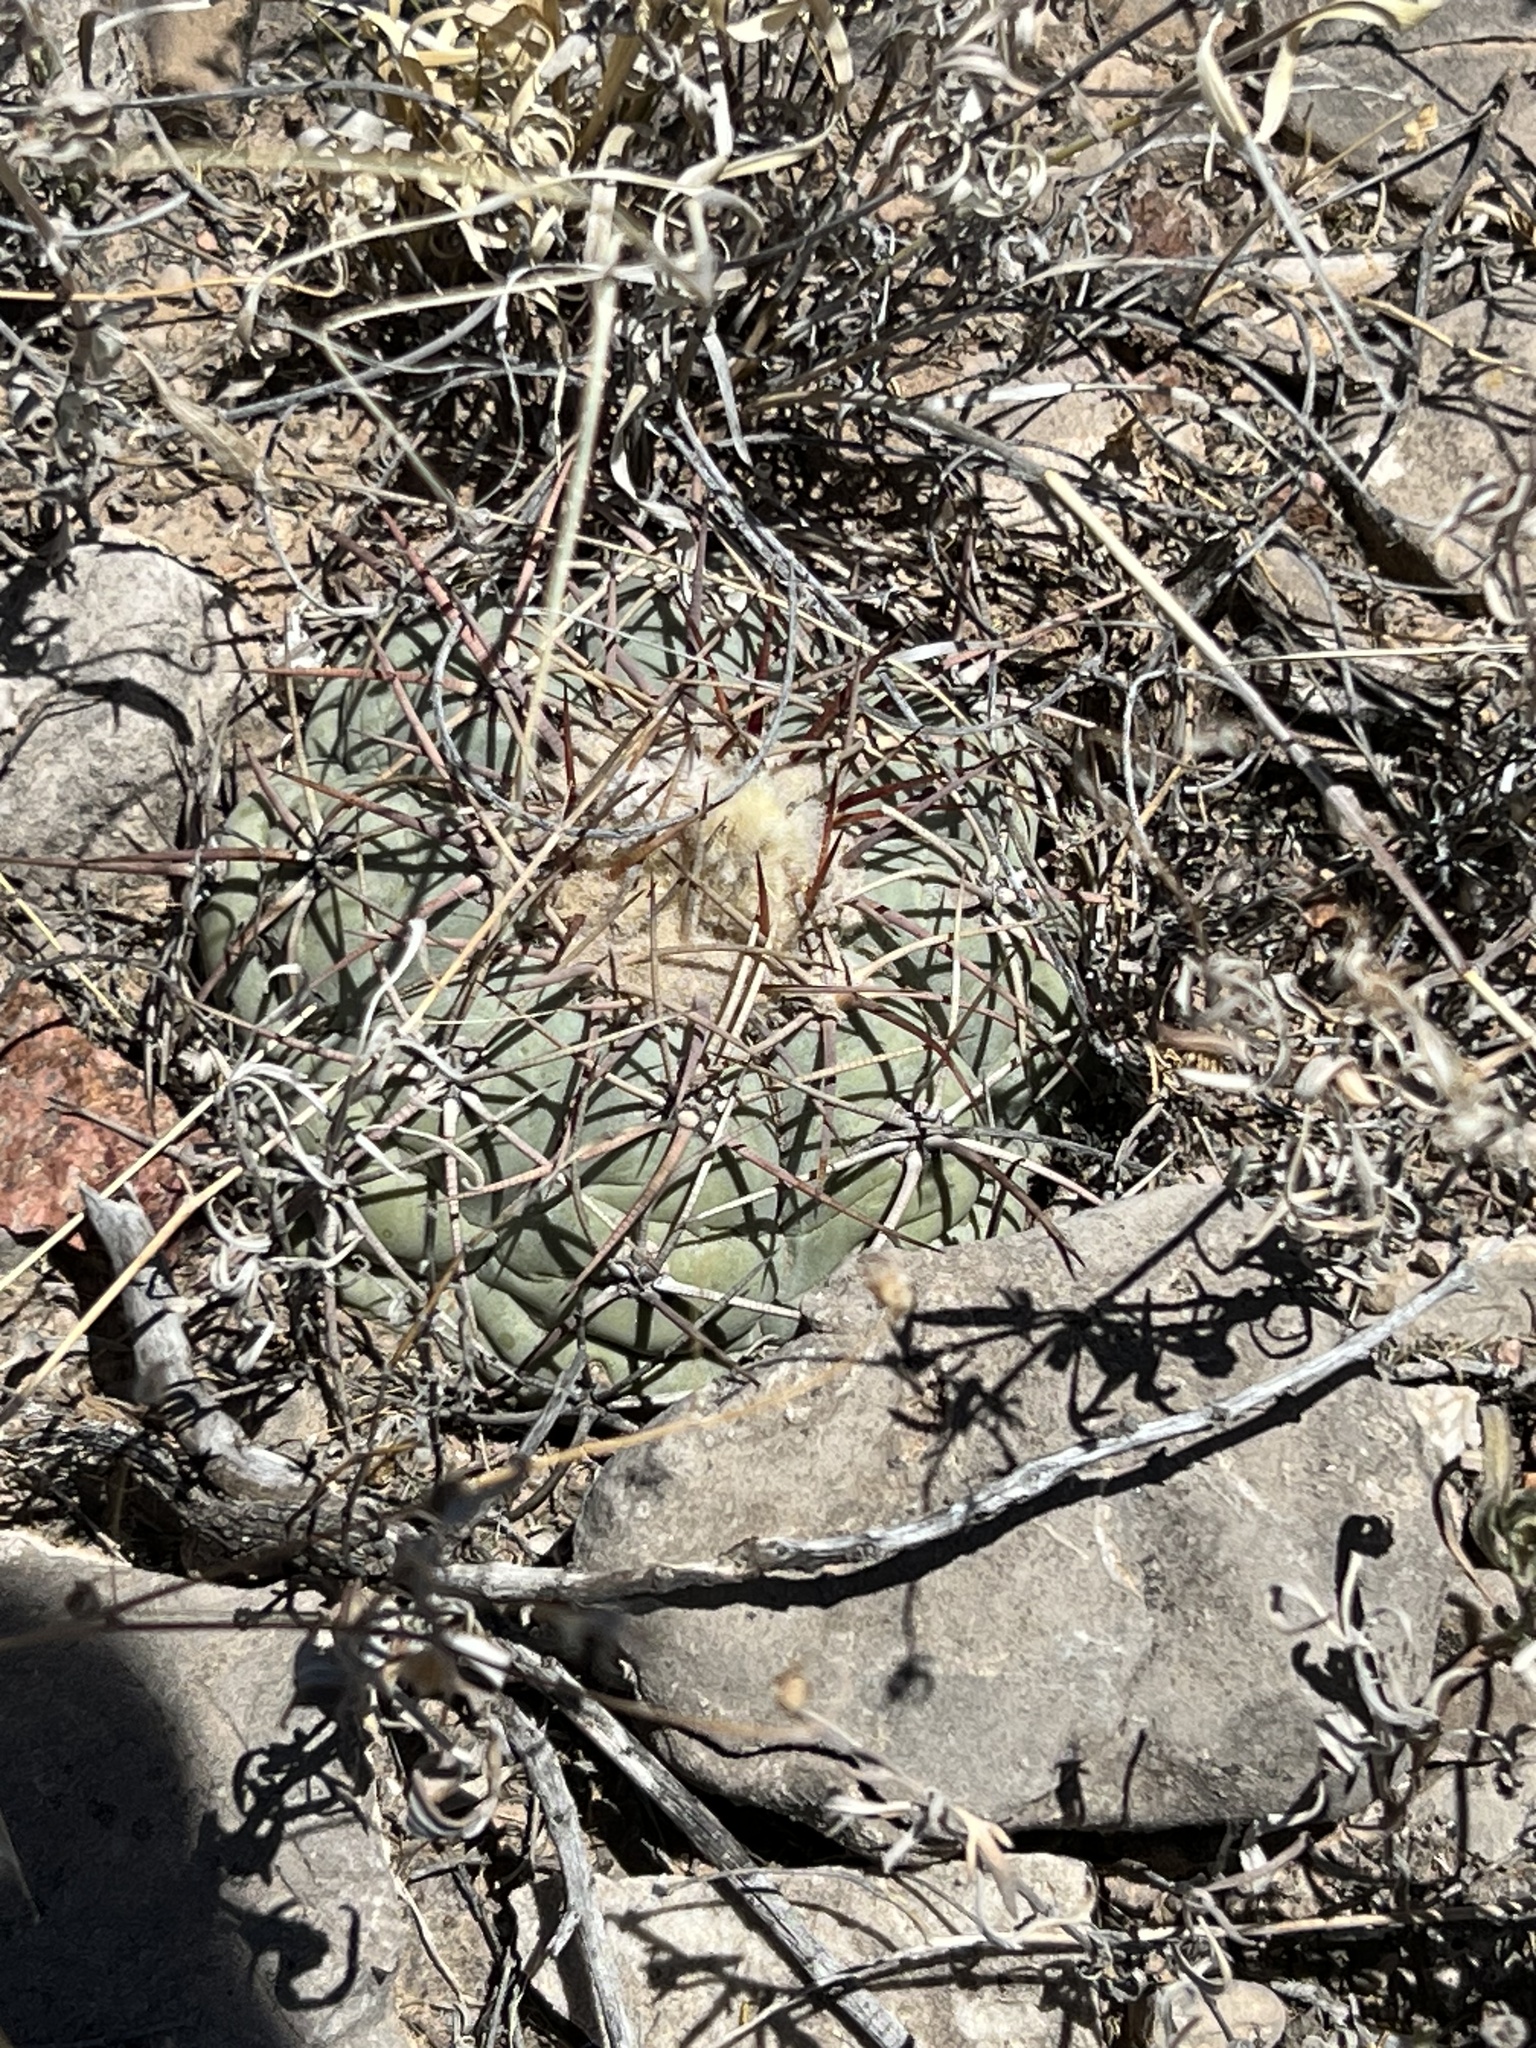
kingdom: Plantae
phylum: Tracheophyta
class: Magnoliopsida
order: Caryophyllales
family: Cactaceae
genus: Echinocactus
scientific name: Echinocactus horizonthalonius
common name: Devilshead
